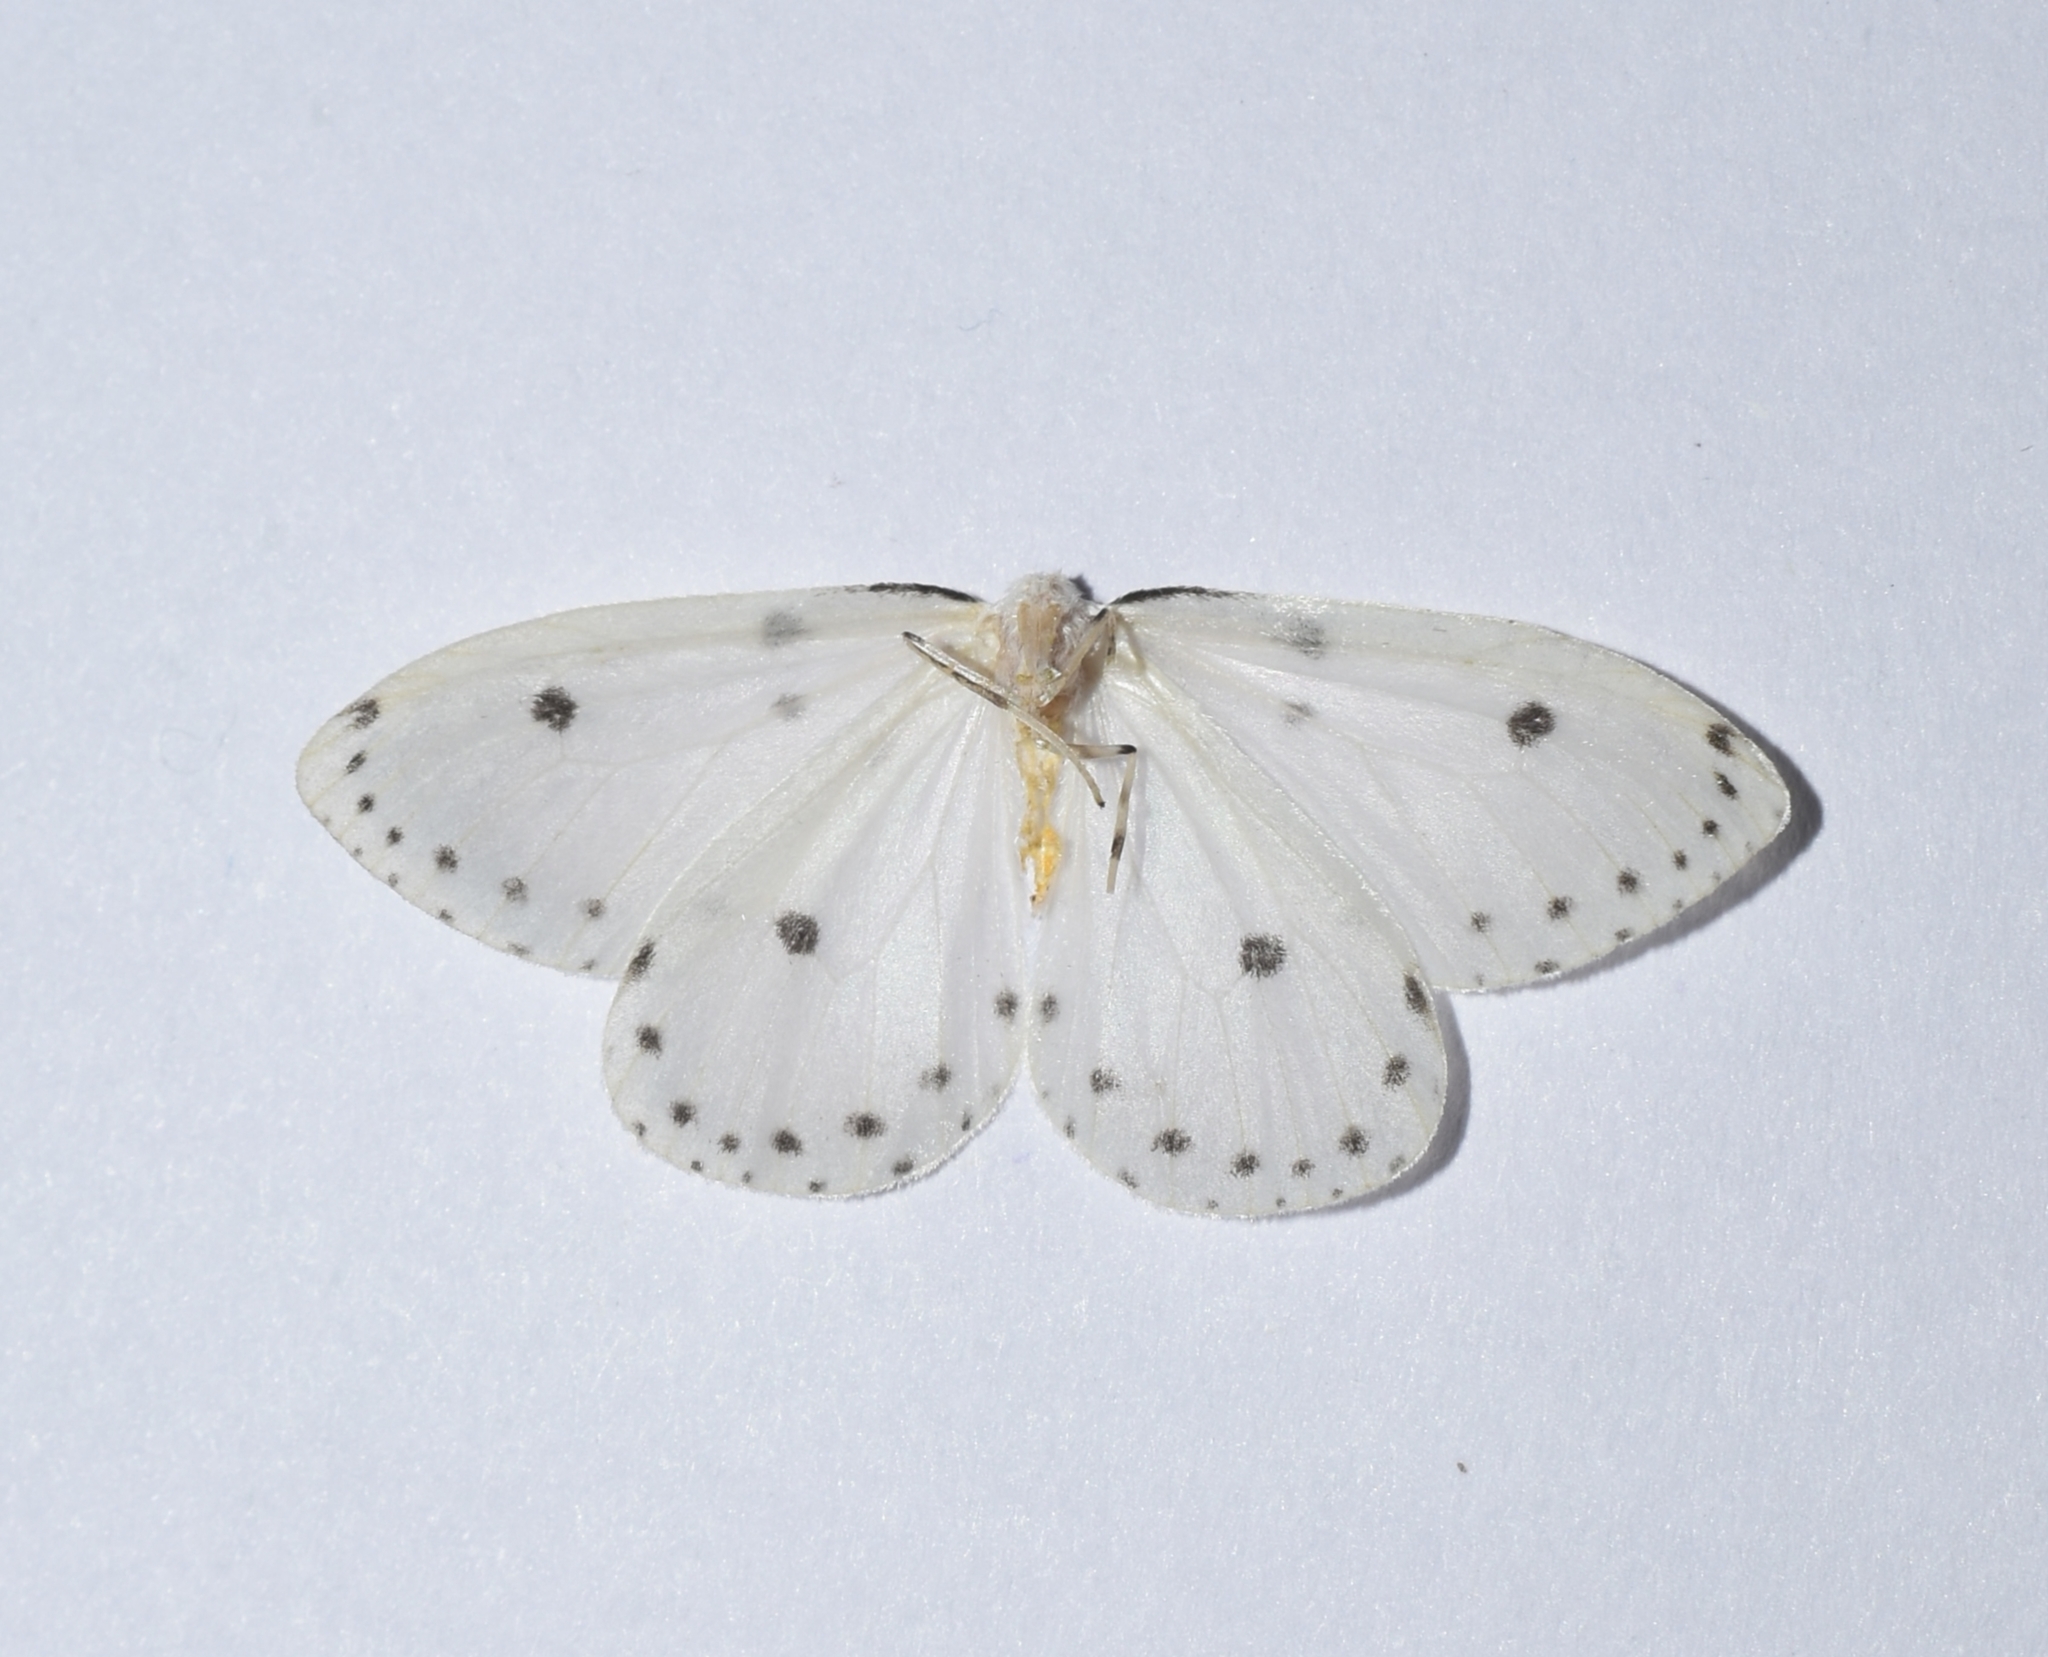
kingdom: Animalia
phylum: Arthropoda
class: Insecta
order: Lepidoptera
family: Geometridae
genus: Naxa
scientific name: Naxa textilis
